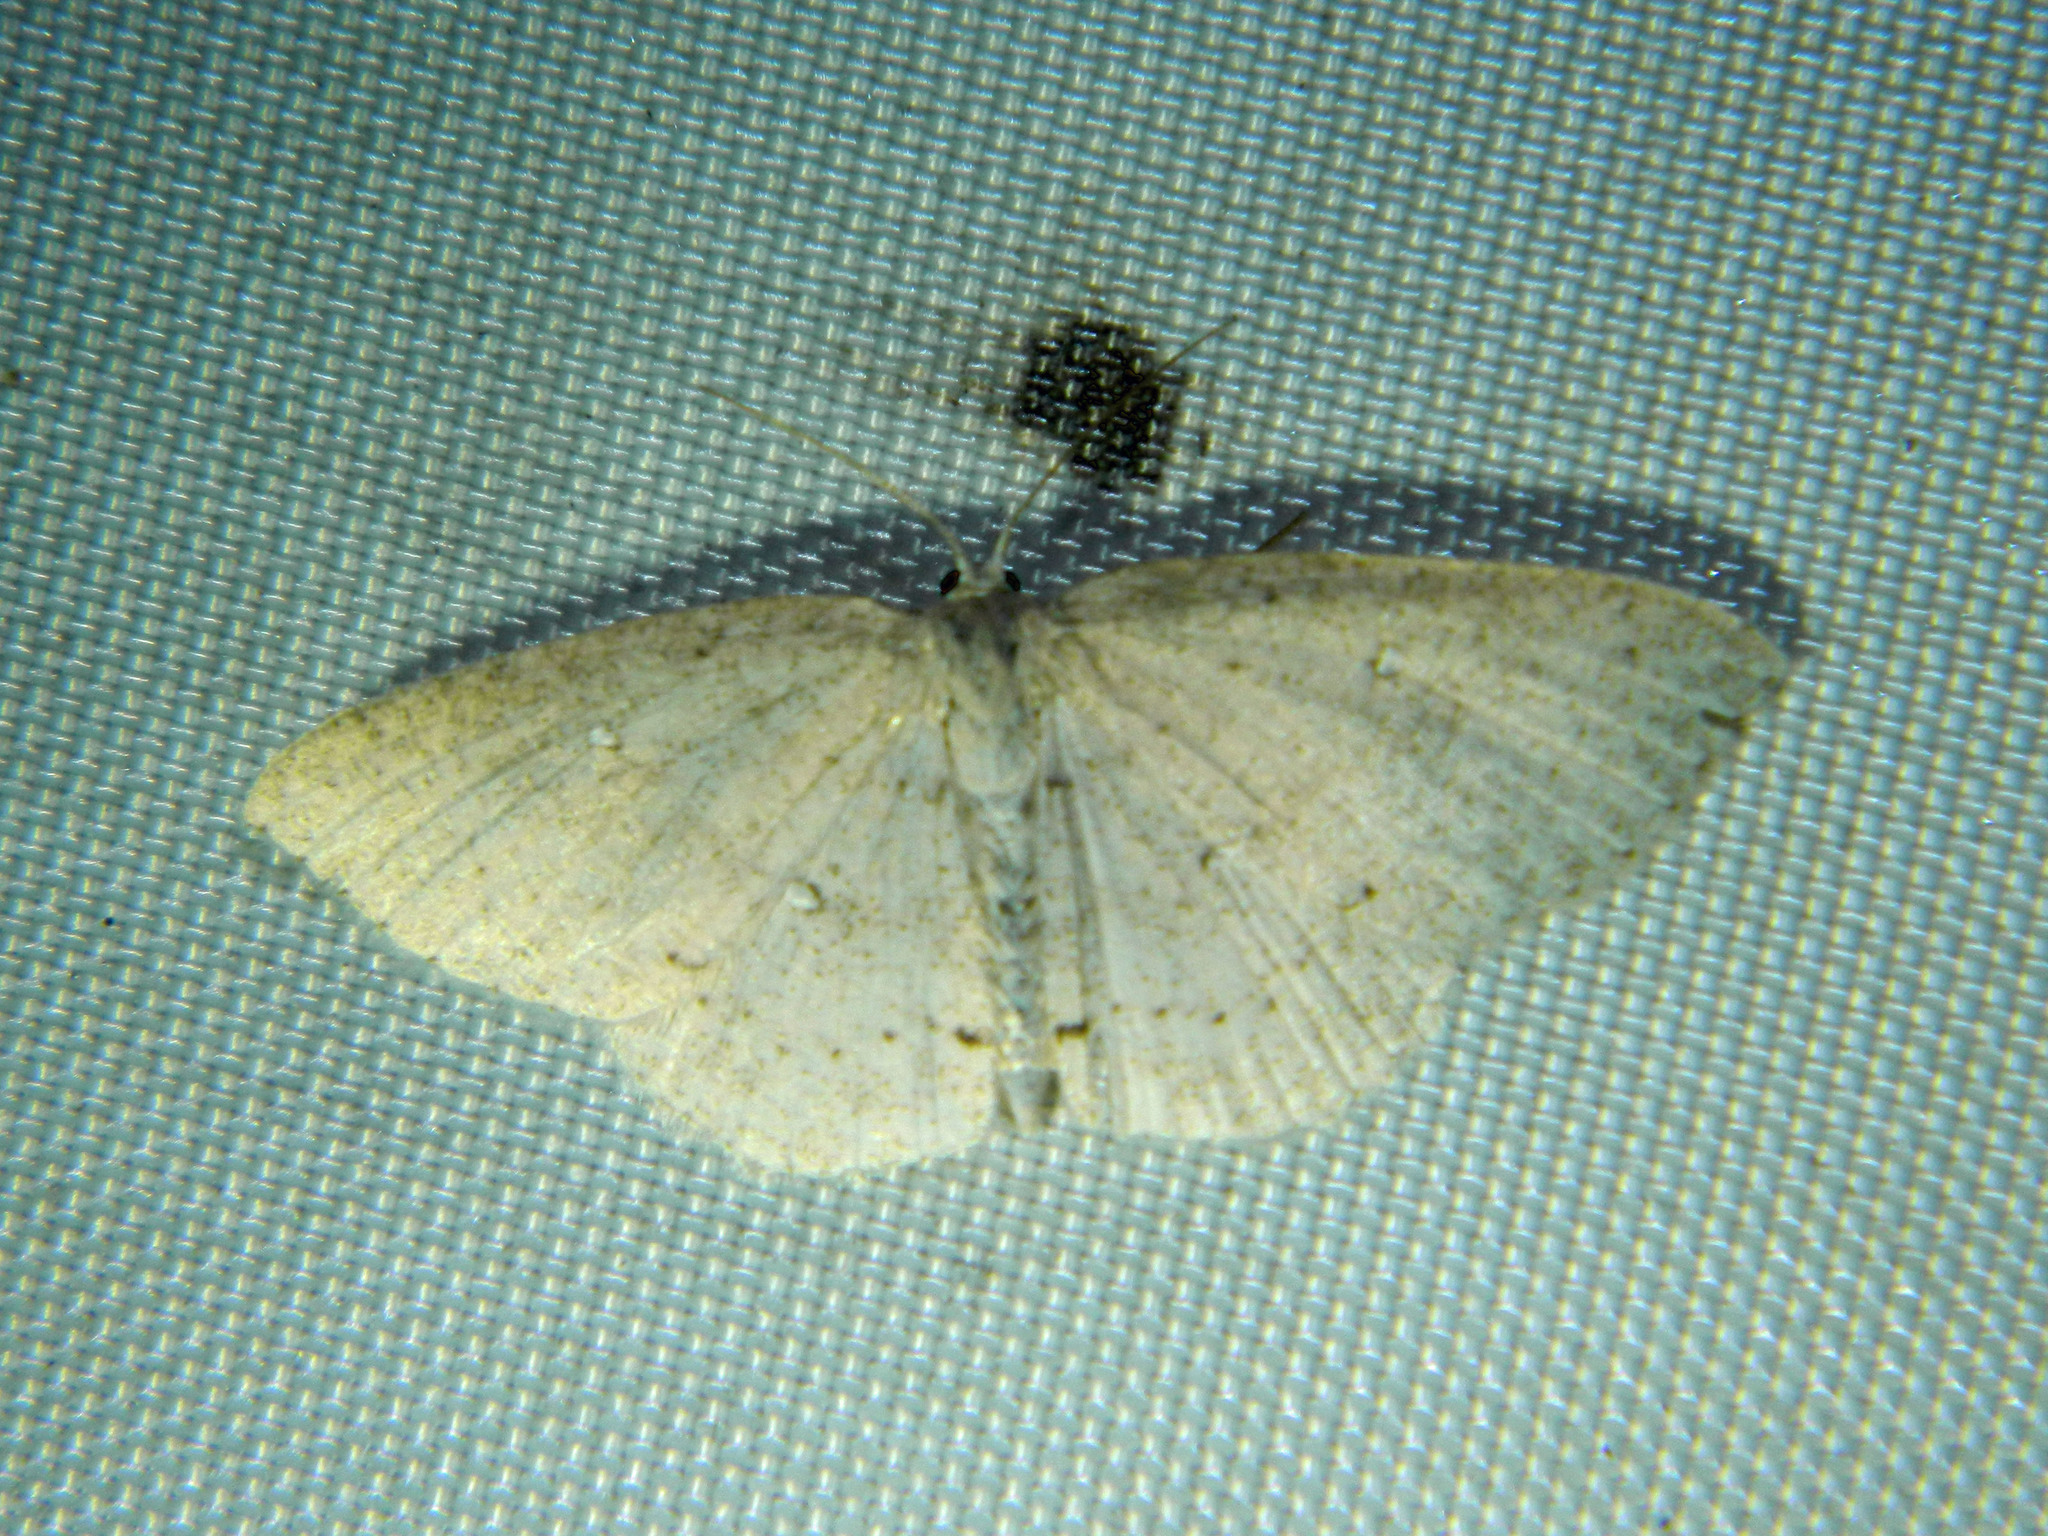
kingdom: Animalia
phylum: Arthropoda
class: Insecta
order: Lepidoptera
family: Geometridae
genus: Cyclophora
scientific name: Cyclophora pendulinaria
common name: Sweet fern geometer
